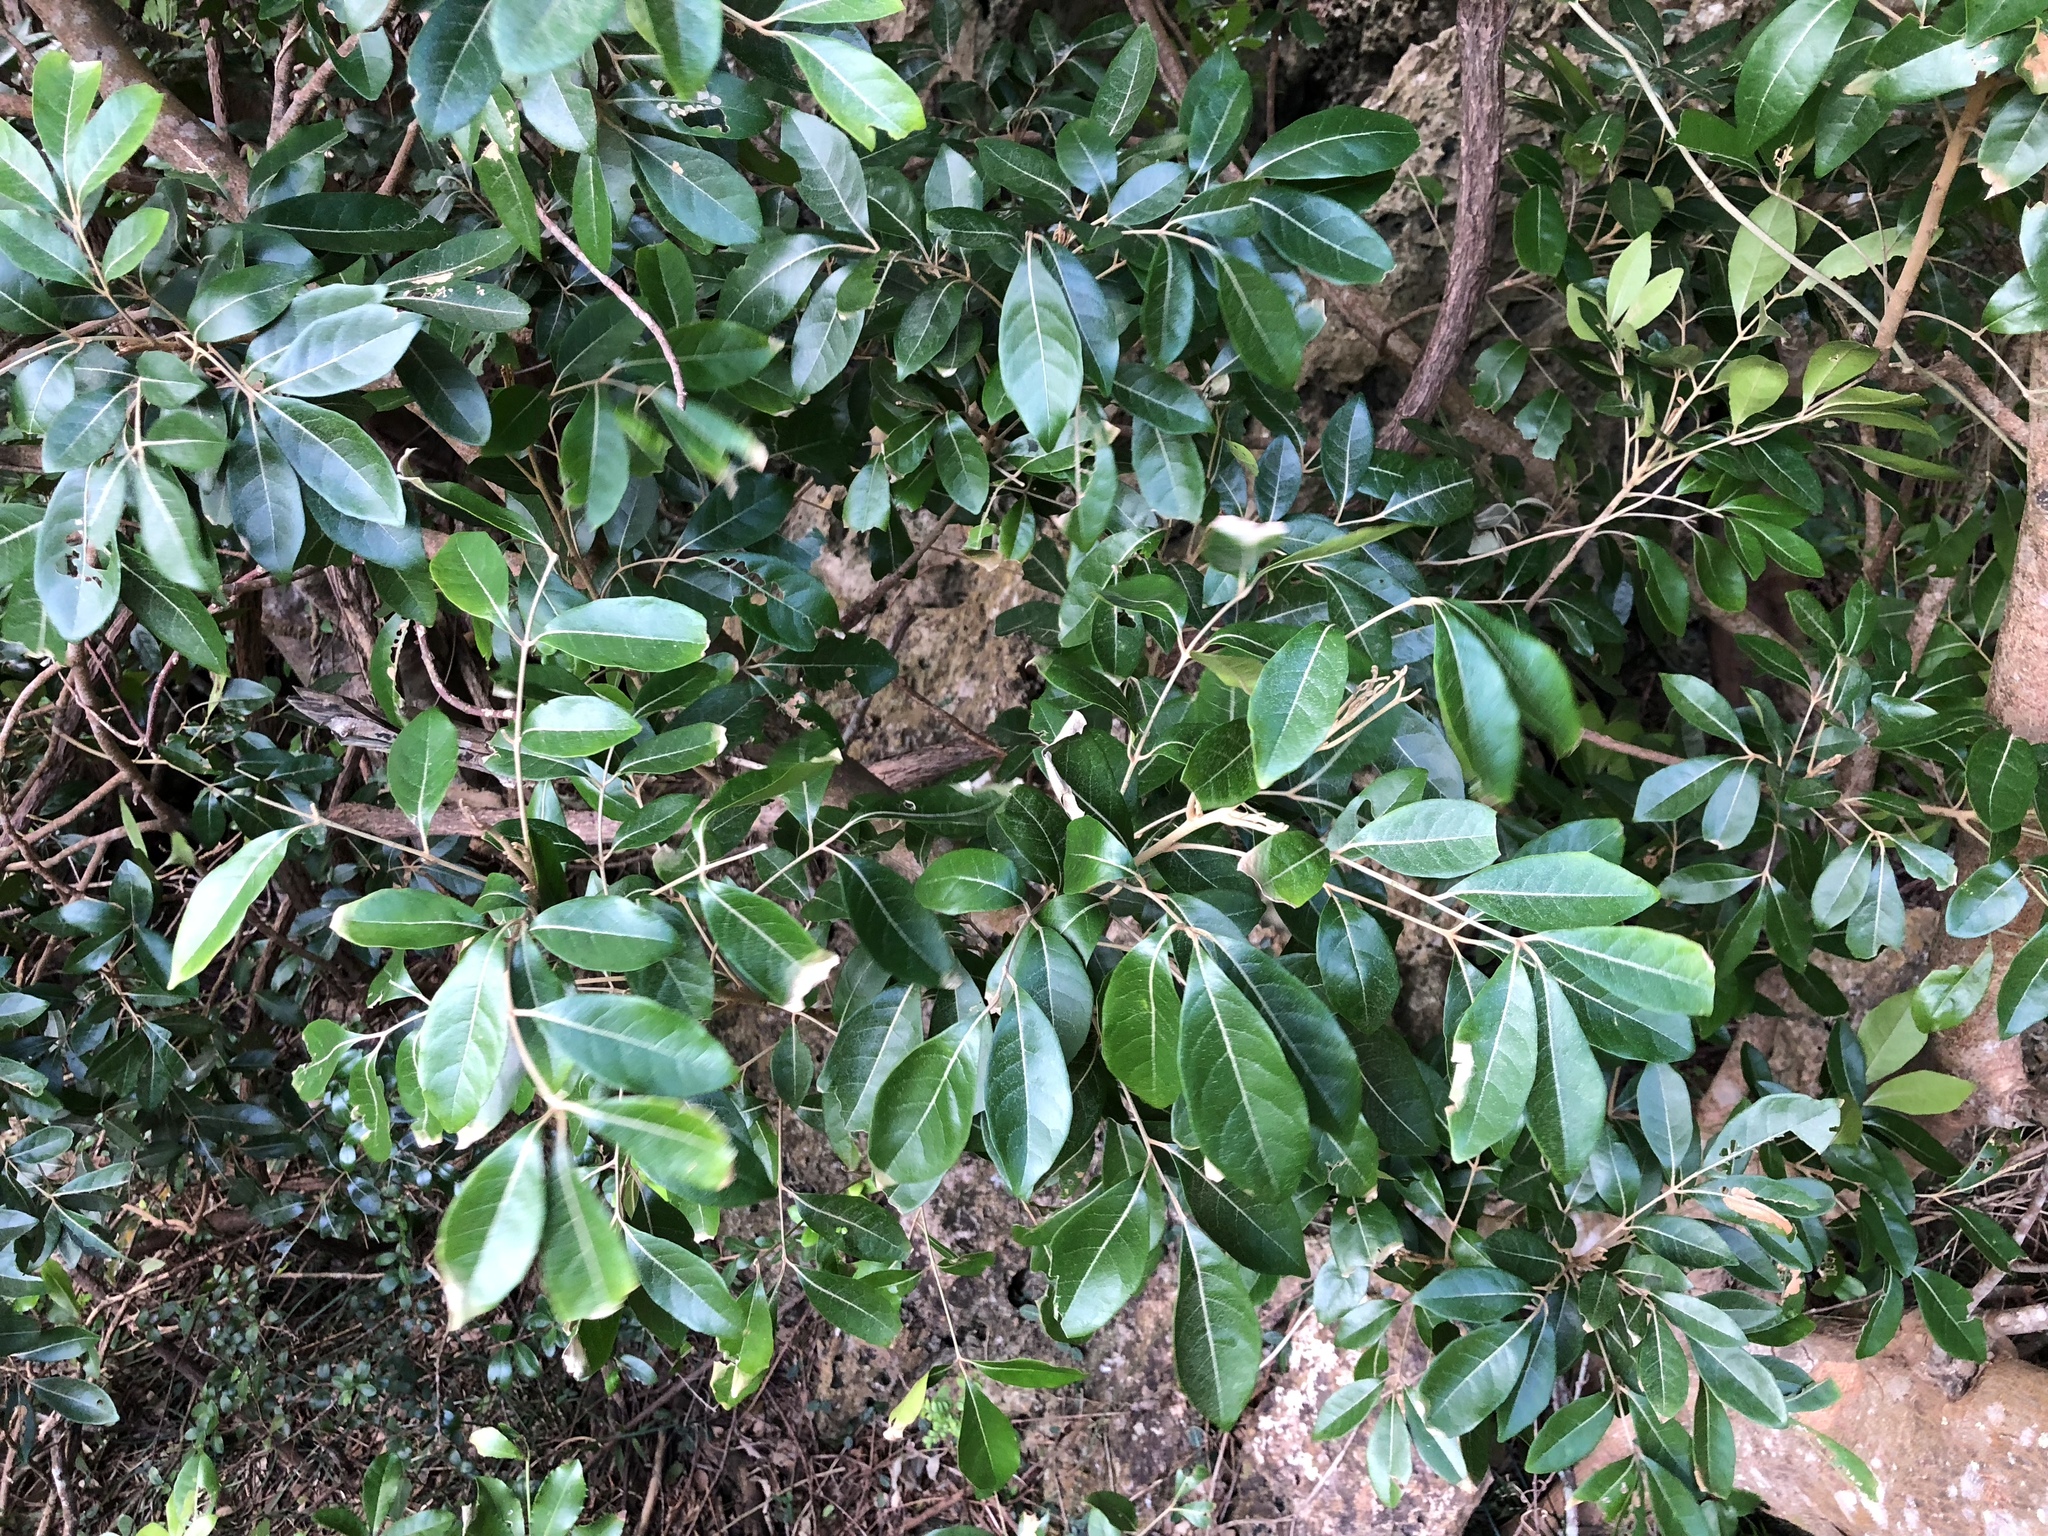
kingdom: Plantae
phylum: Tracheophyta
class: Magnoliopsida
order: Sapindales
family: Meliaceae
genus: Aglaia
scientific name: Aglaia elaeagnoidea
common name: Droopyleaf
